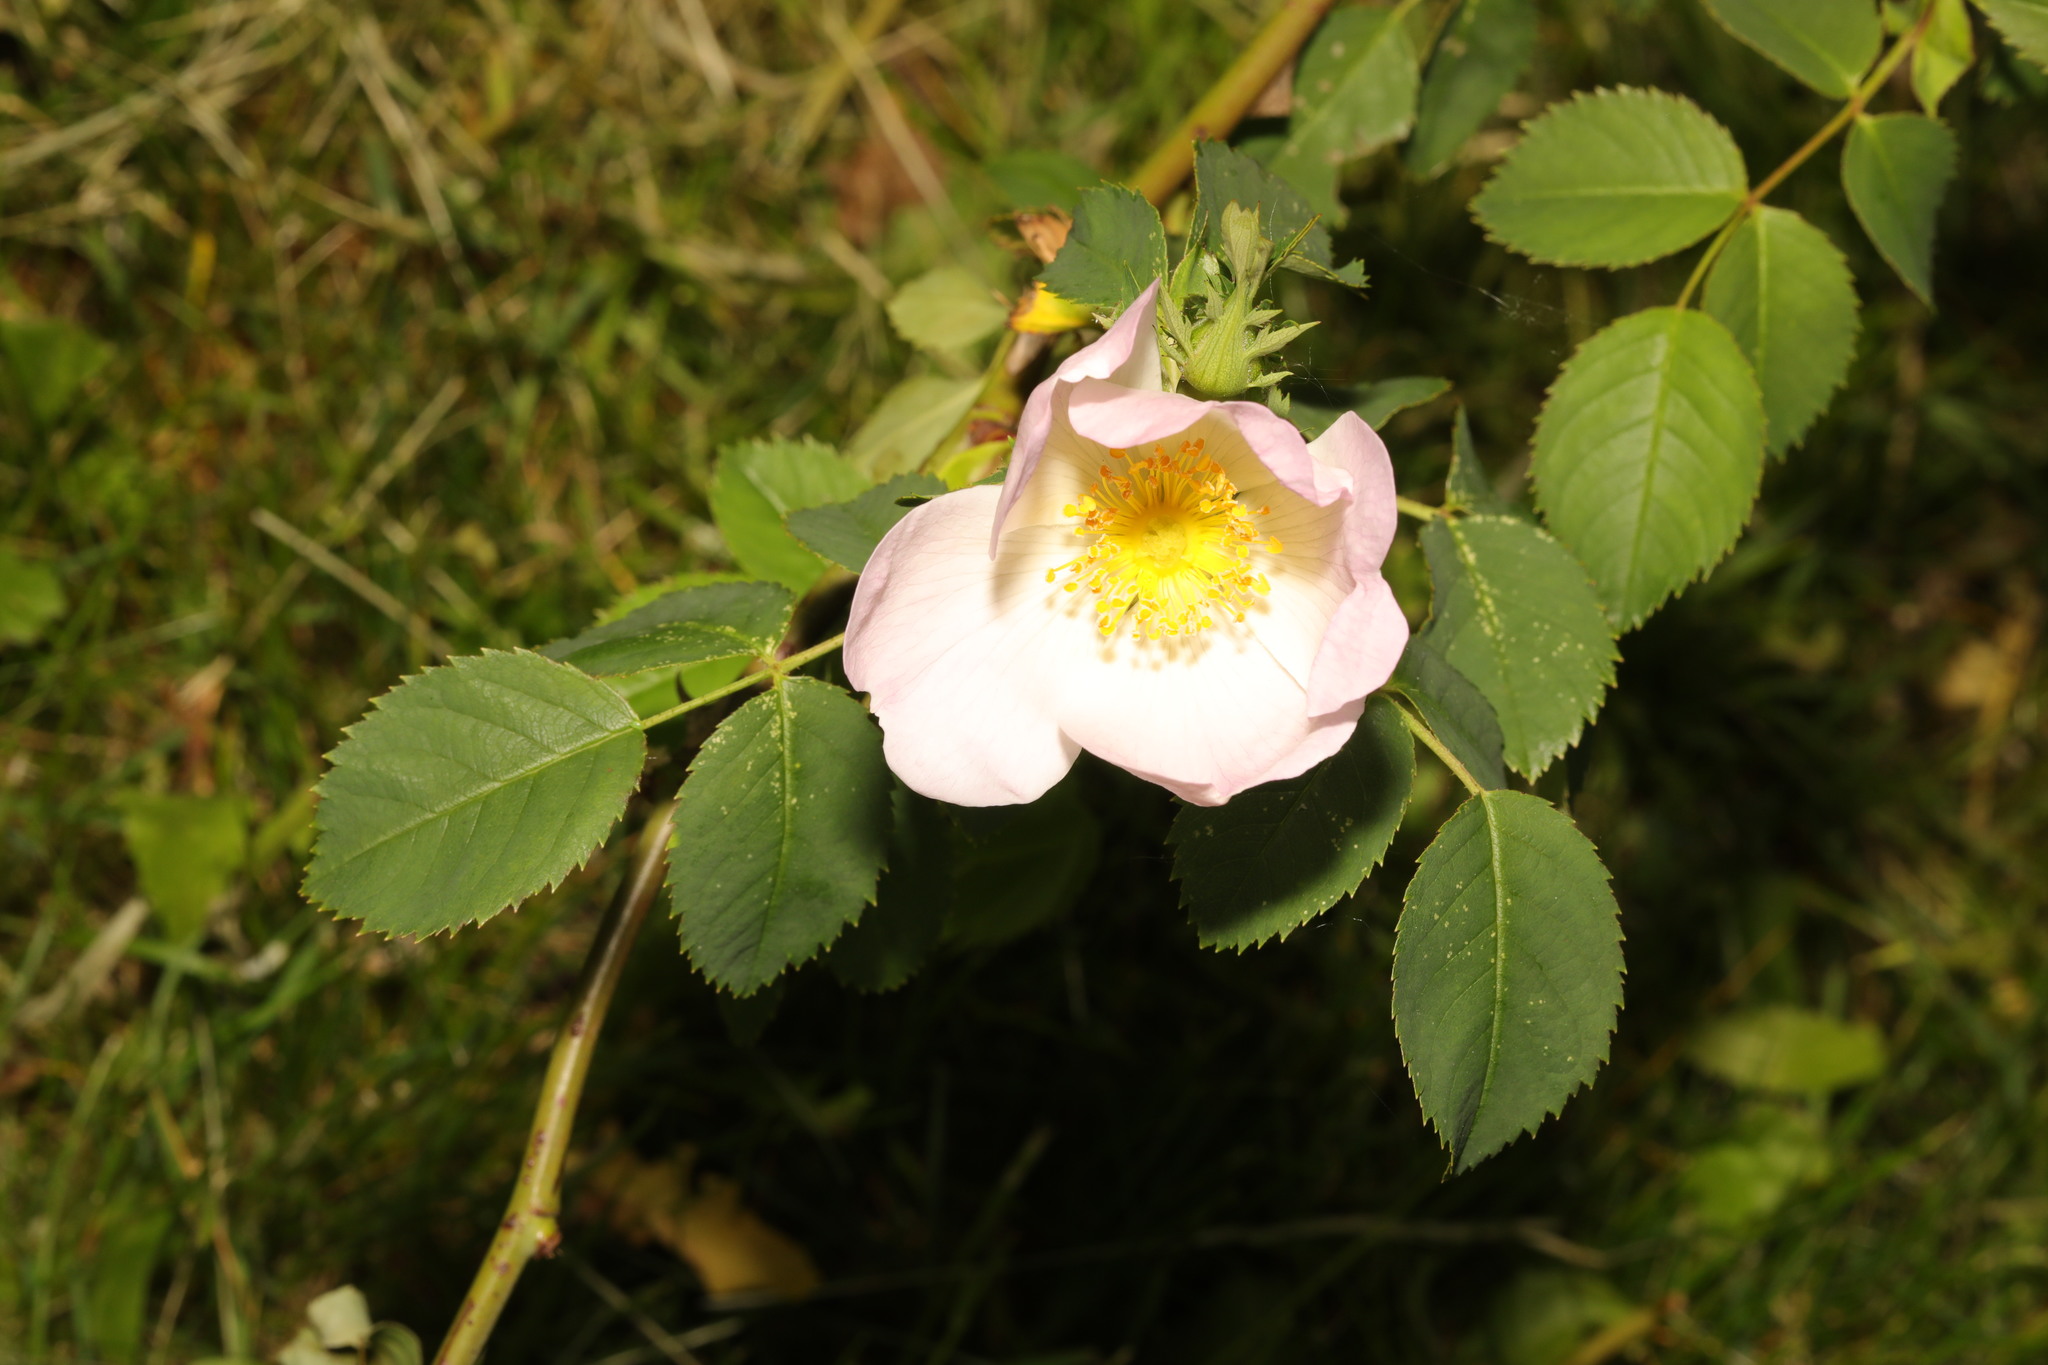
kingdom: Plantae
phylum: Tracheophyta
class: Magnoliopsida
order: Rosales
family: Rosaceae
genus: Rosa
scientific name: Rosa canina
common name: Dog rose
